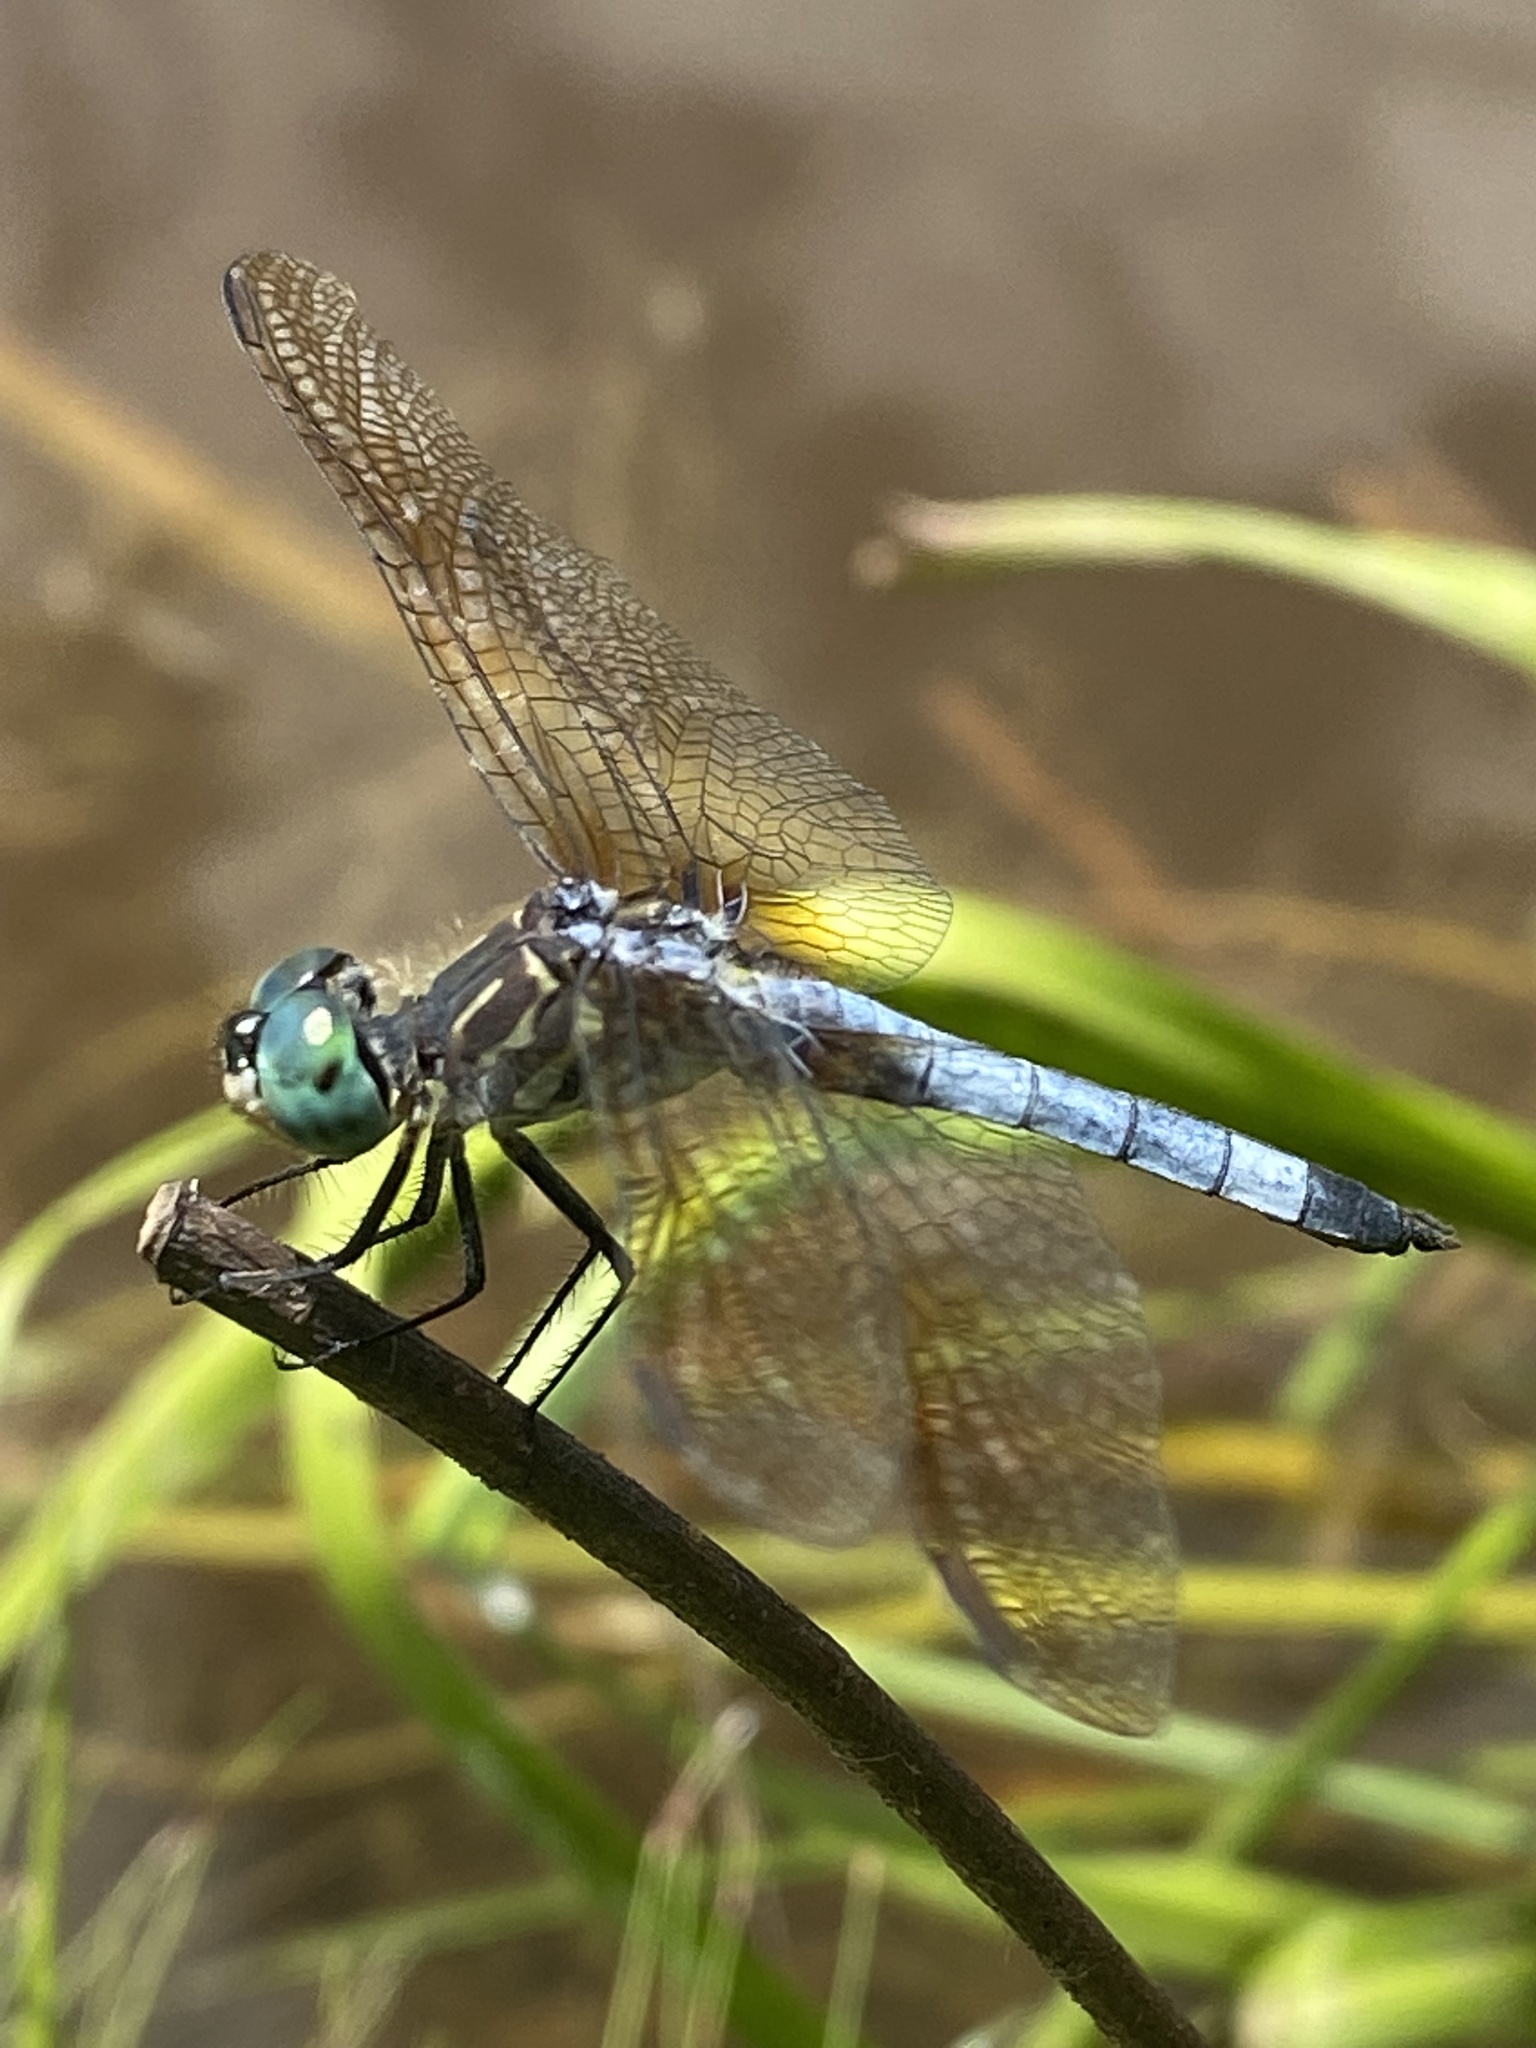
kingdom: Animalia
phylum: Arthropoda
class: Insecta
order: Odonata
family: Libellulidae
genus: Pachydiplax
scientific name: Pachydiplax longipennis
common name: Blue dasher
